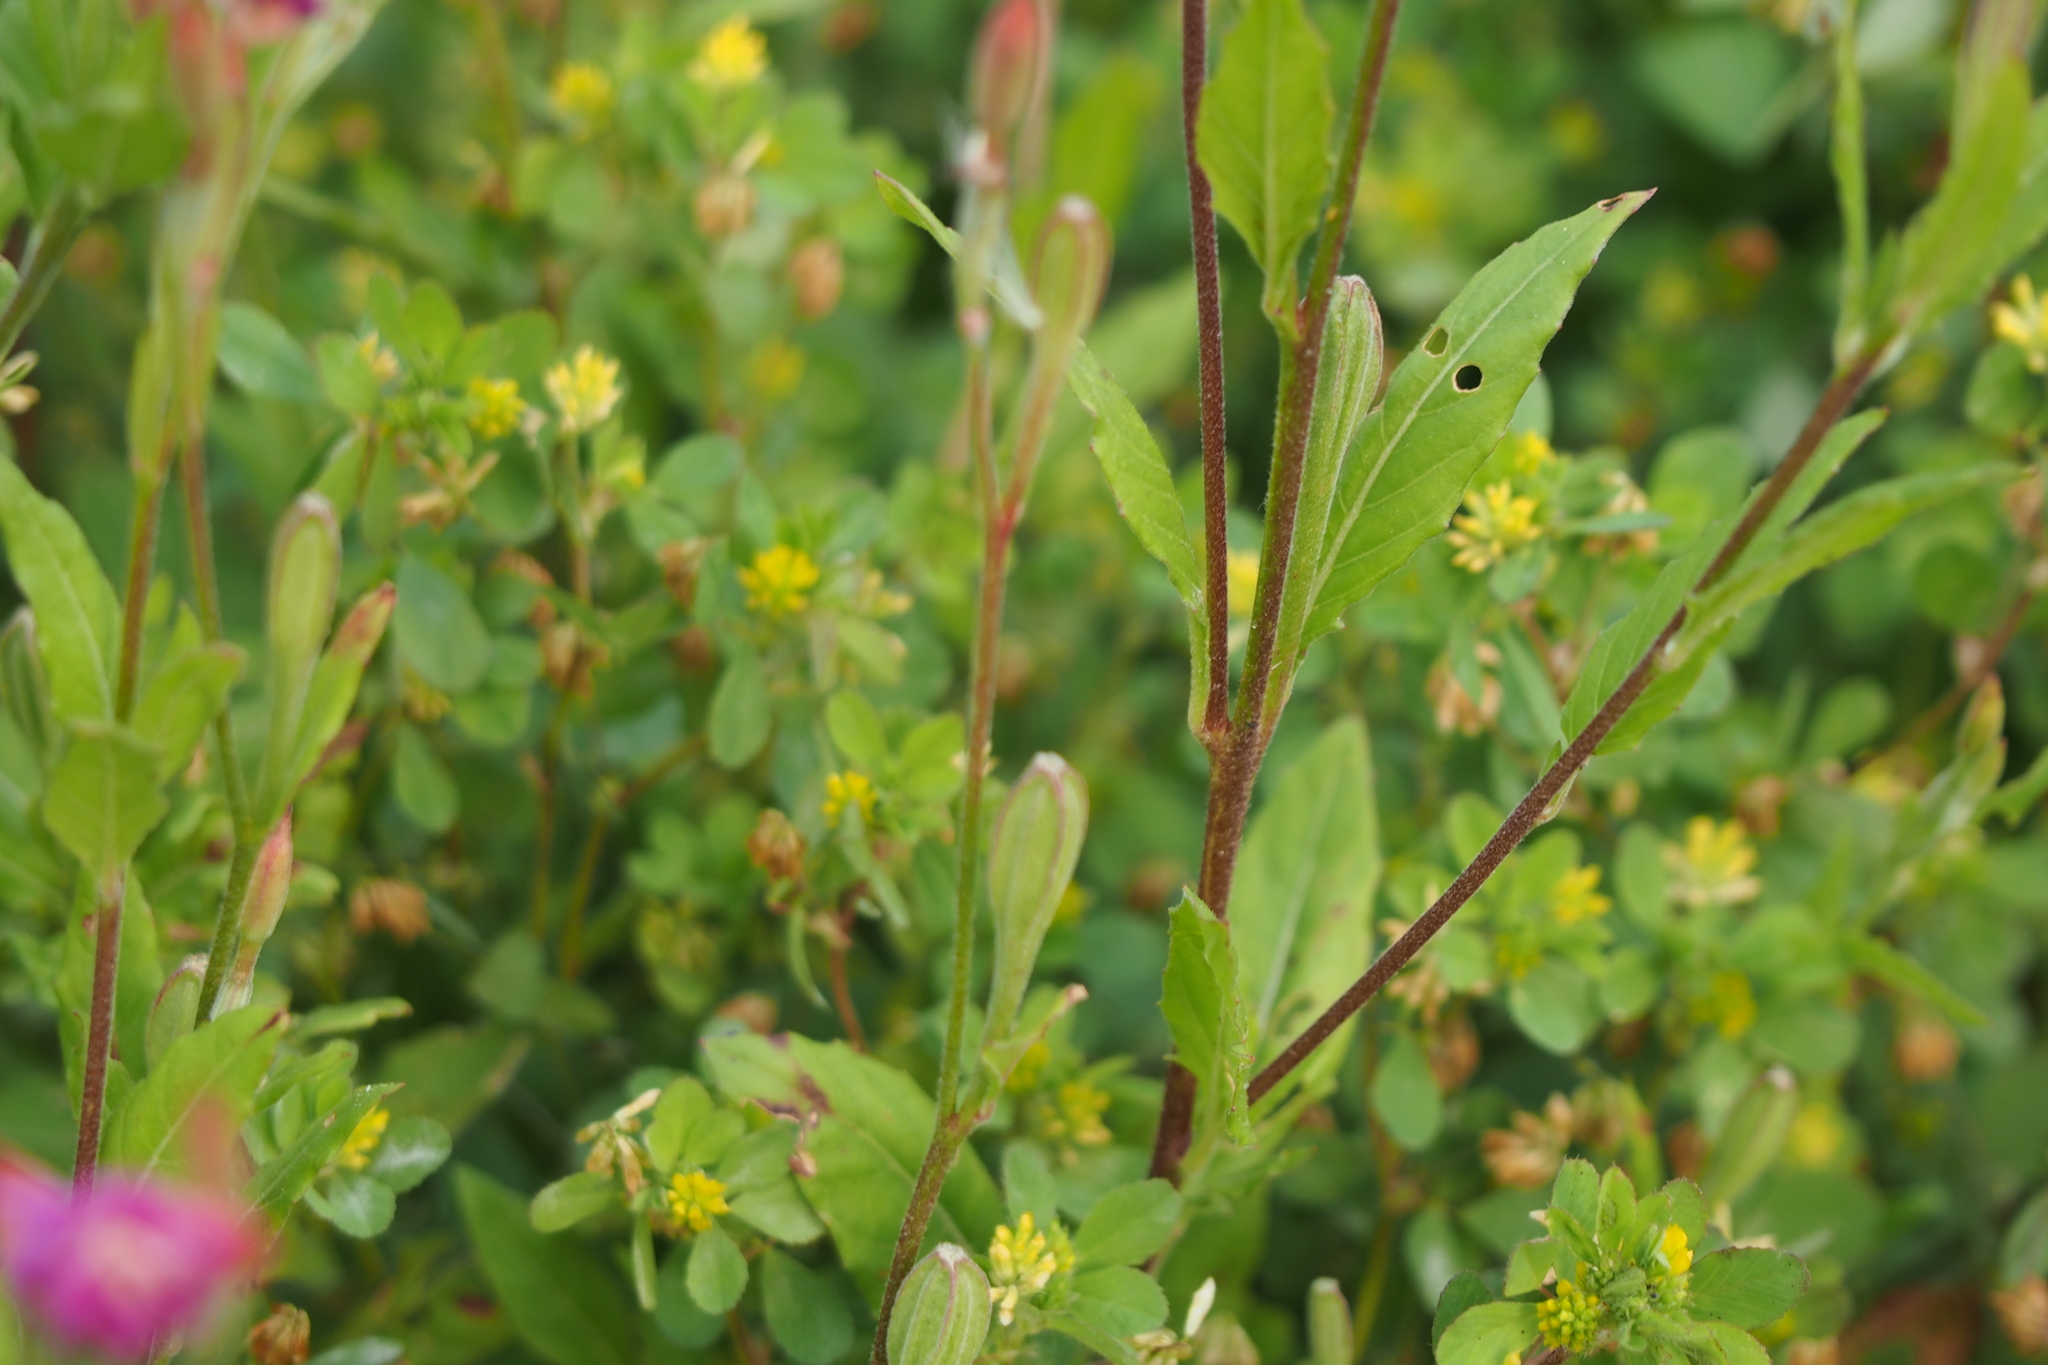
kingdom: Plantae
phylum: Tracheophyta
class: Magnoliopsida
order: Myrtales
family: Onagraceae
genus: Oenothera
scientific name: Oenothera rosea
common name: Rosy evening-primrose
